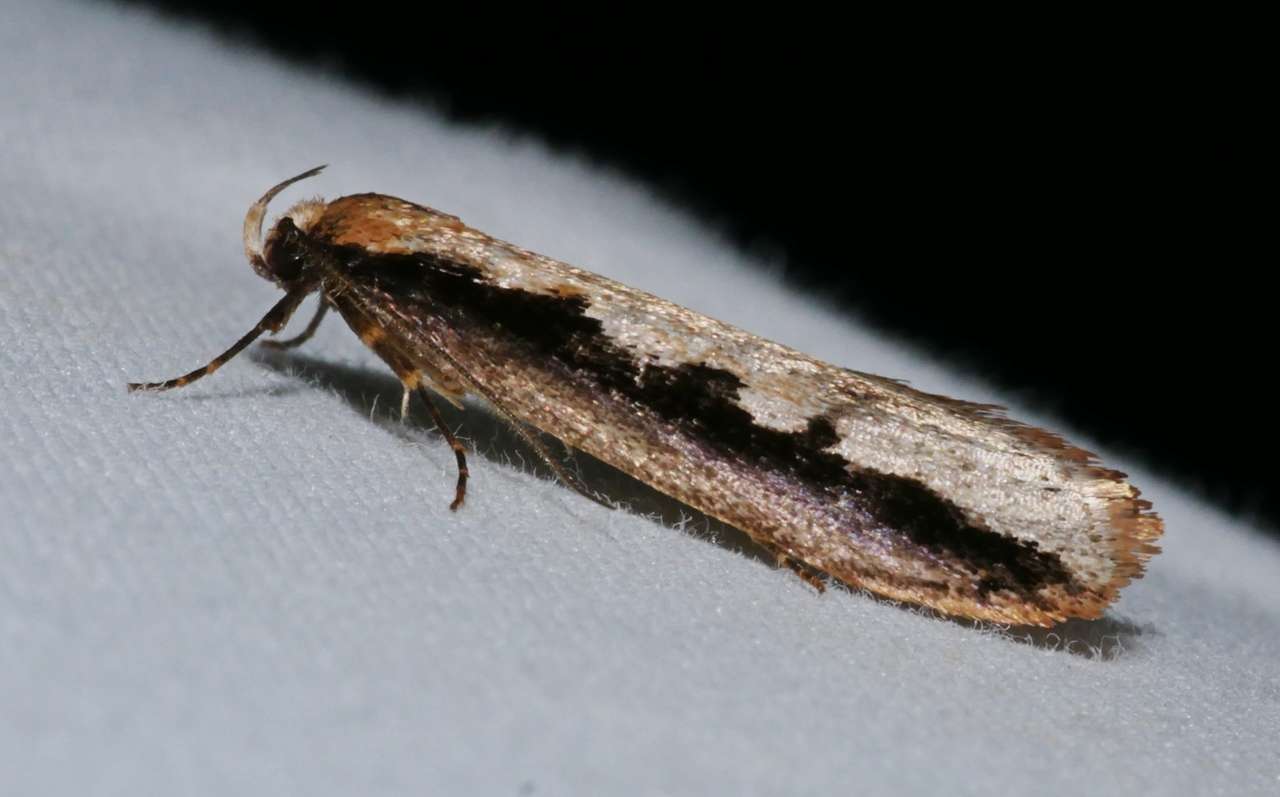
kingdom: Animalia
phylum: Arthropoda
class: Insecta
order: Lepidoptera
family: Oecophoridae
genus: Leptocroca
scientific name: Leptocroca sanguinolenta
